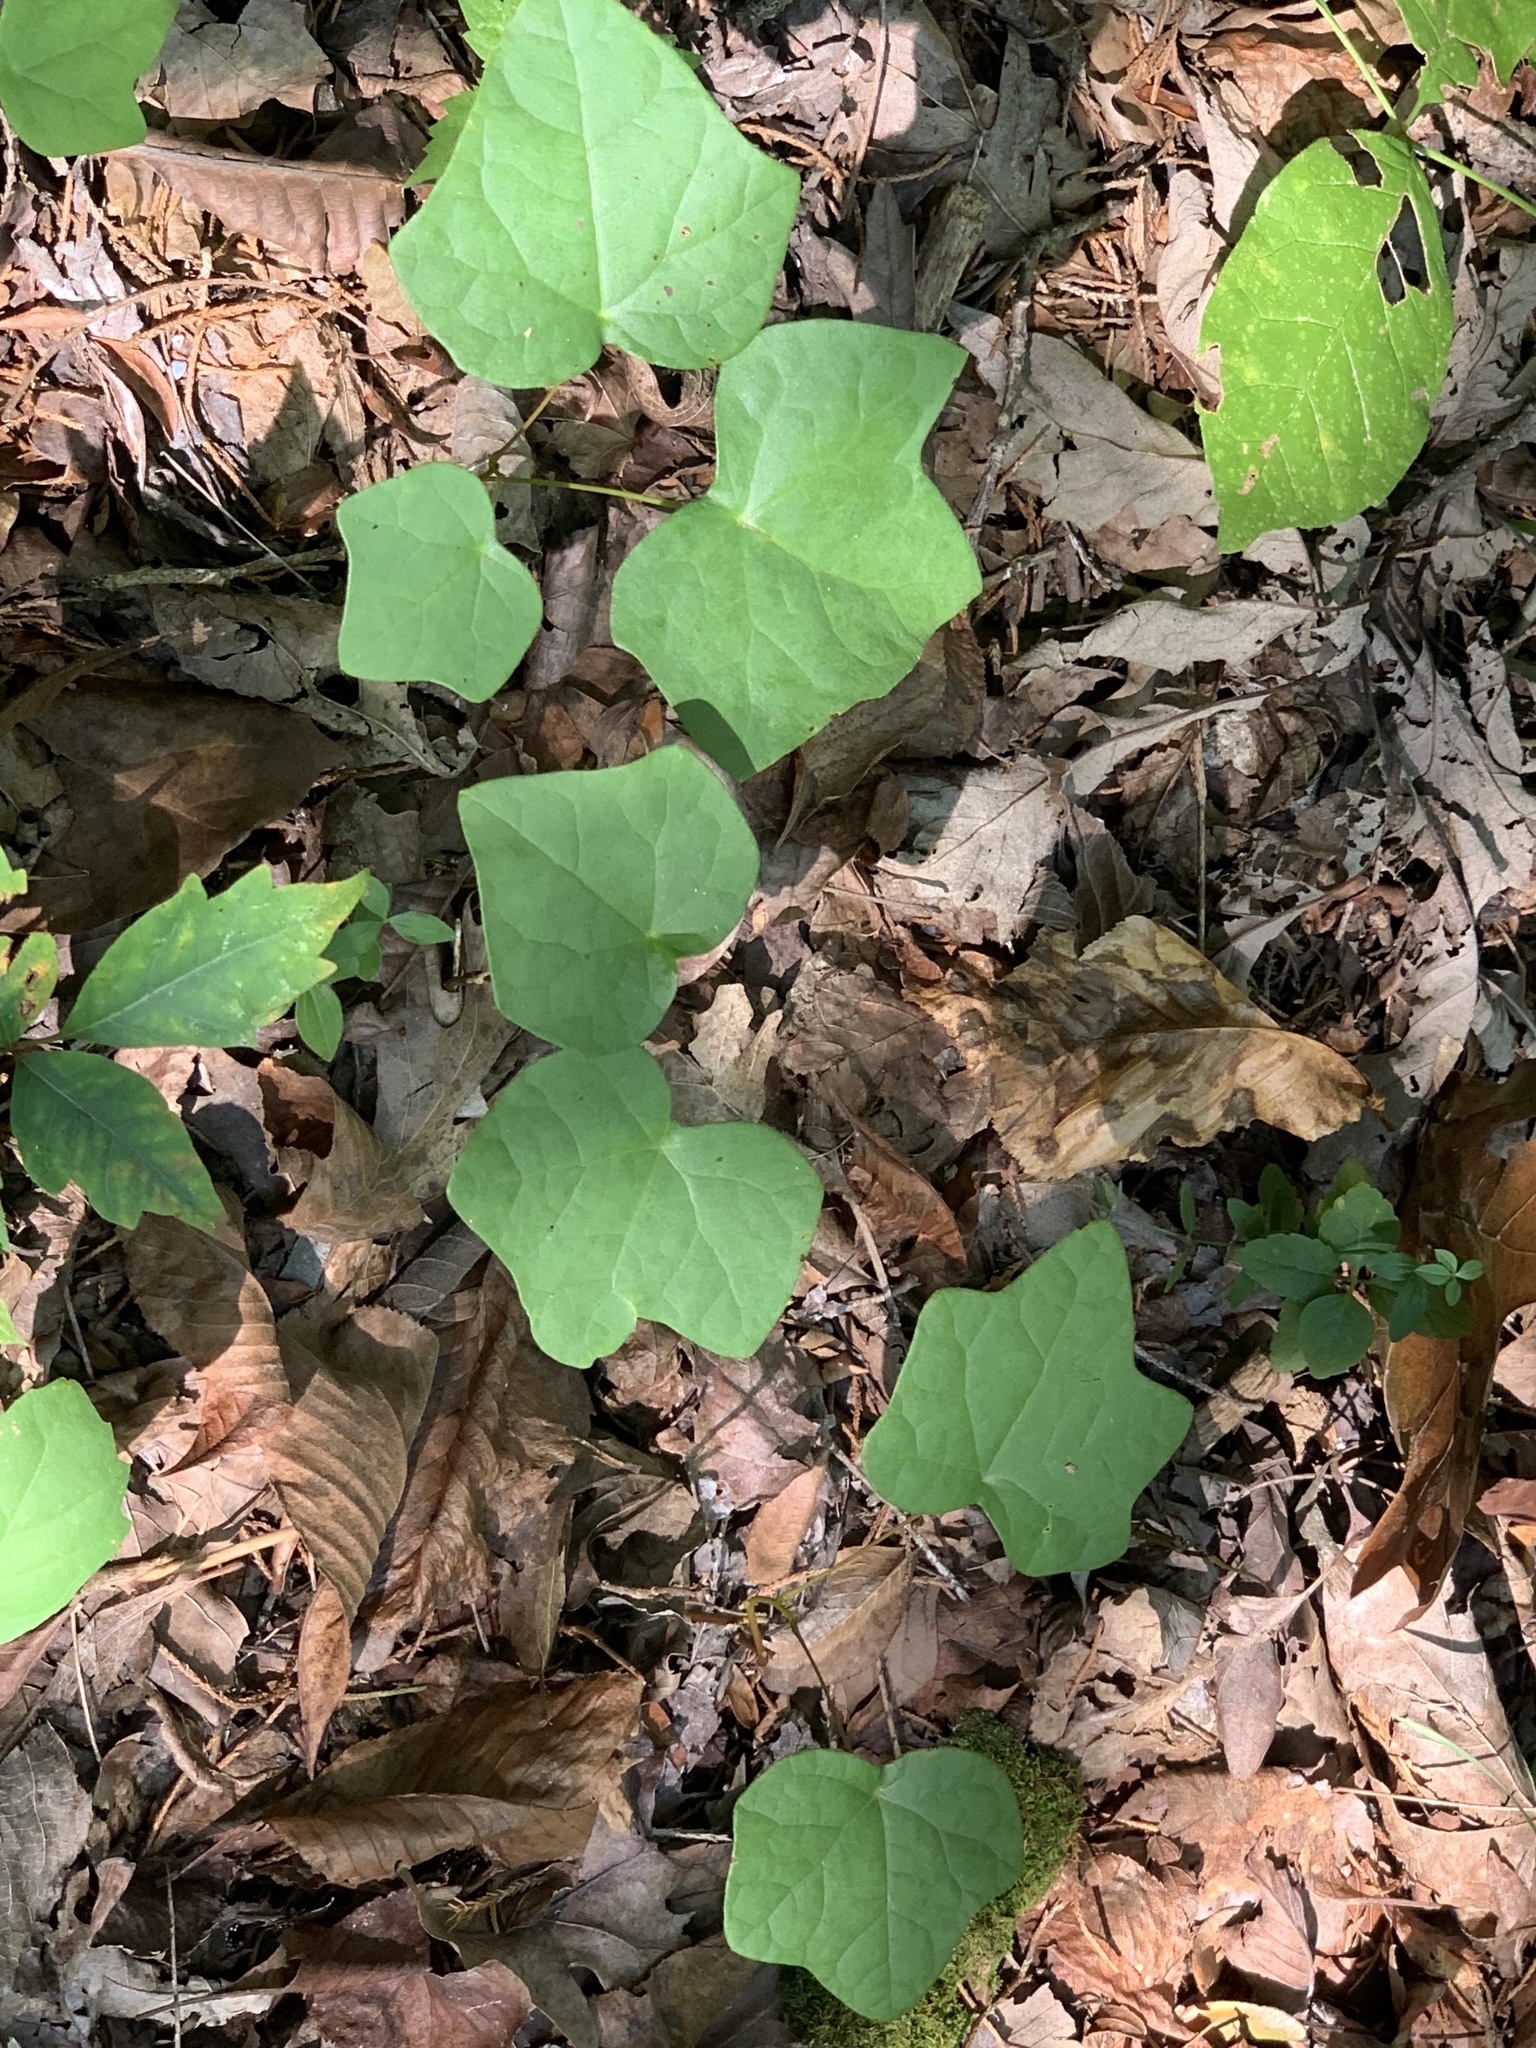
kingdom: Plantae
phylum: Tracheophyta
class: Magnoliopsida
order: Ranunculales
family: Menispermaceae
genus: Menispermum
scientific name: Menispermum canadense
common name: Moonseed
